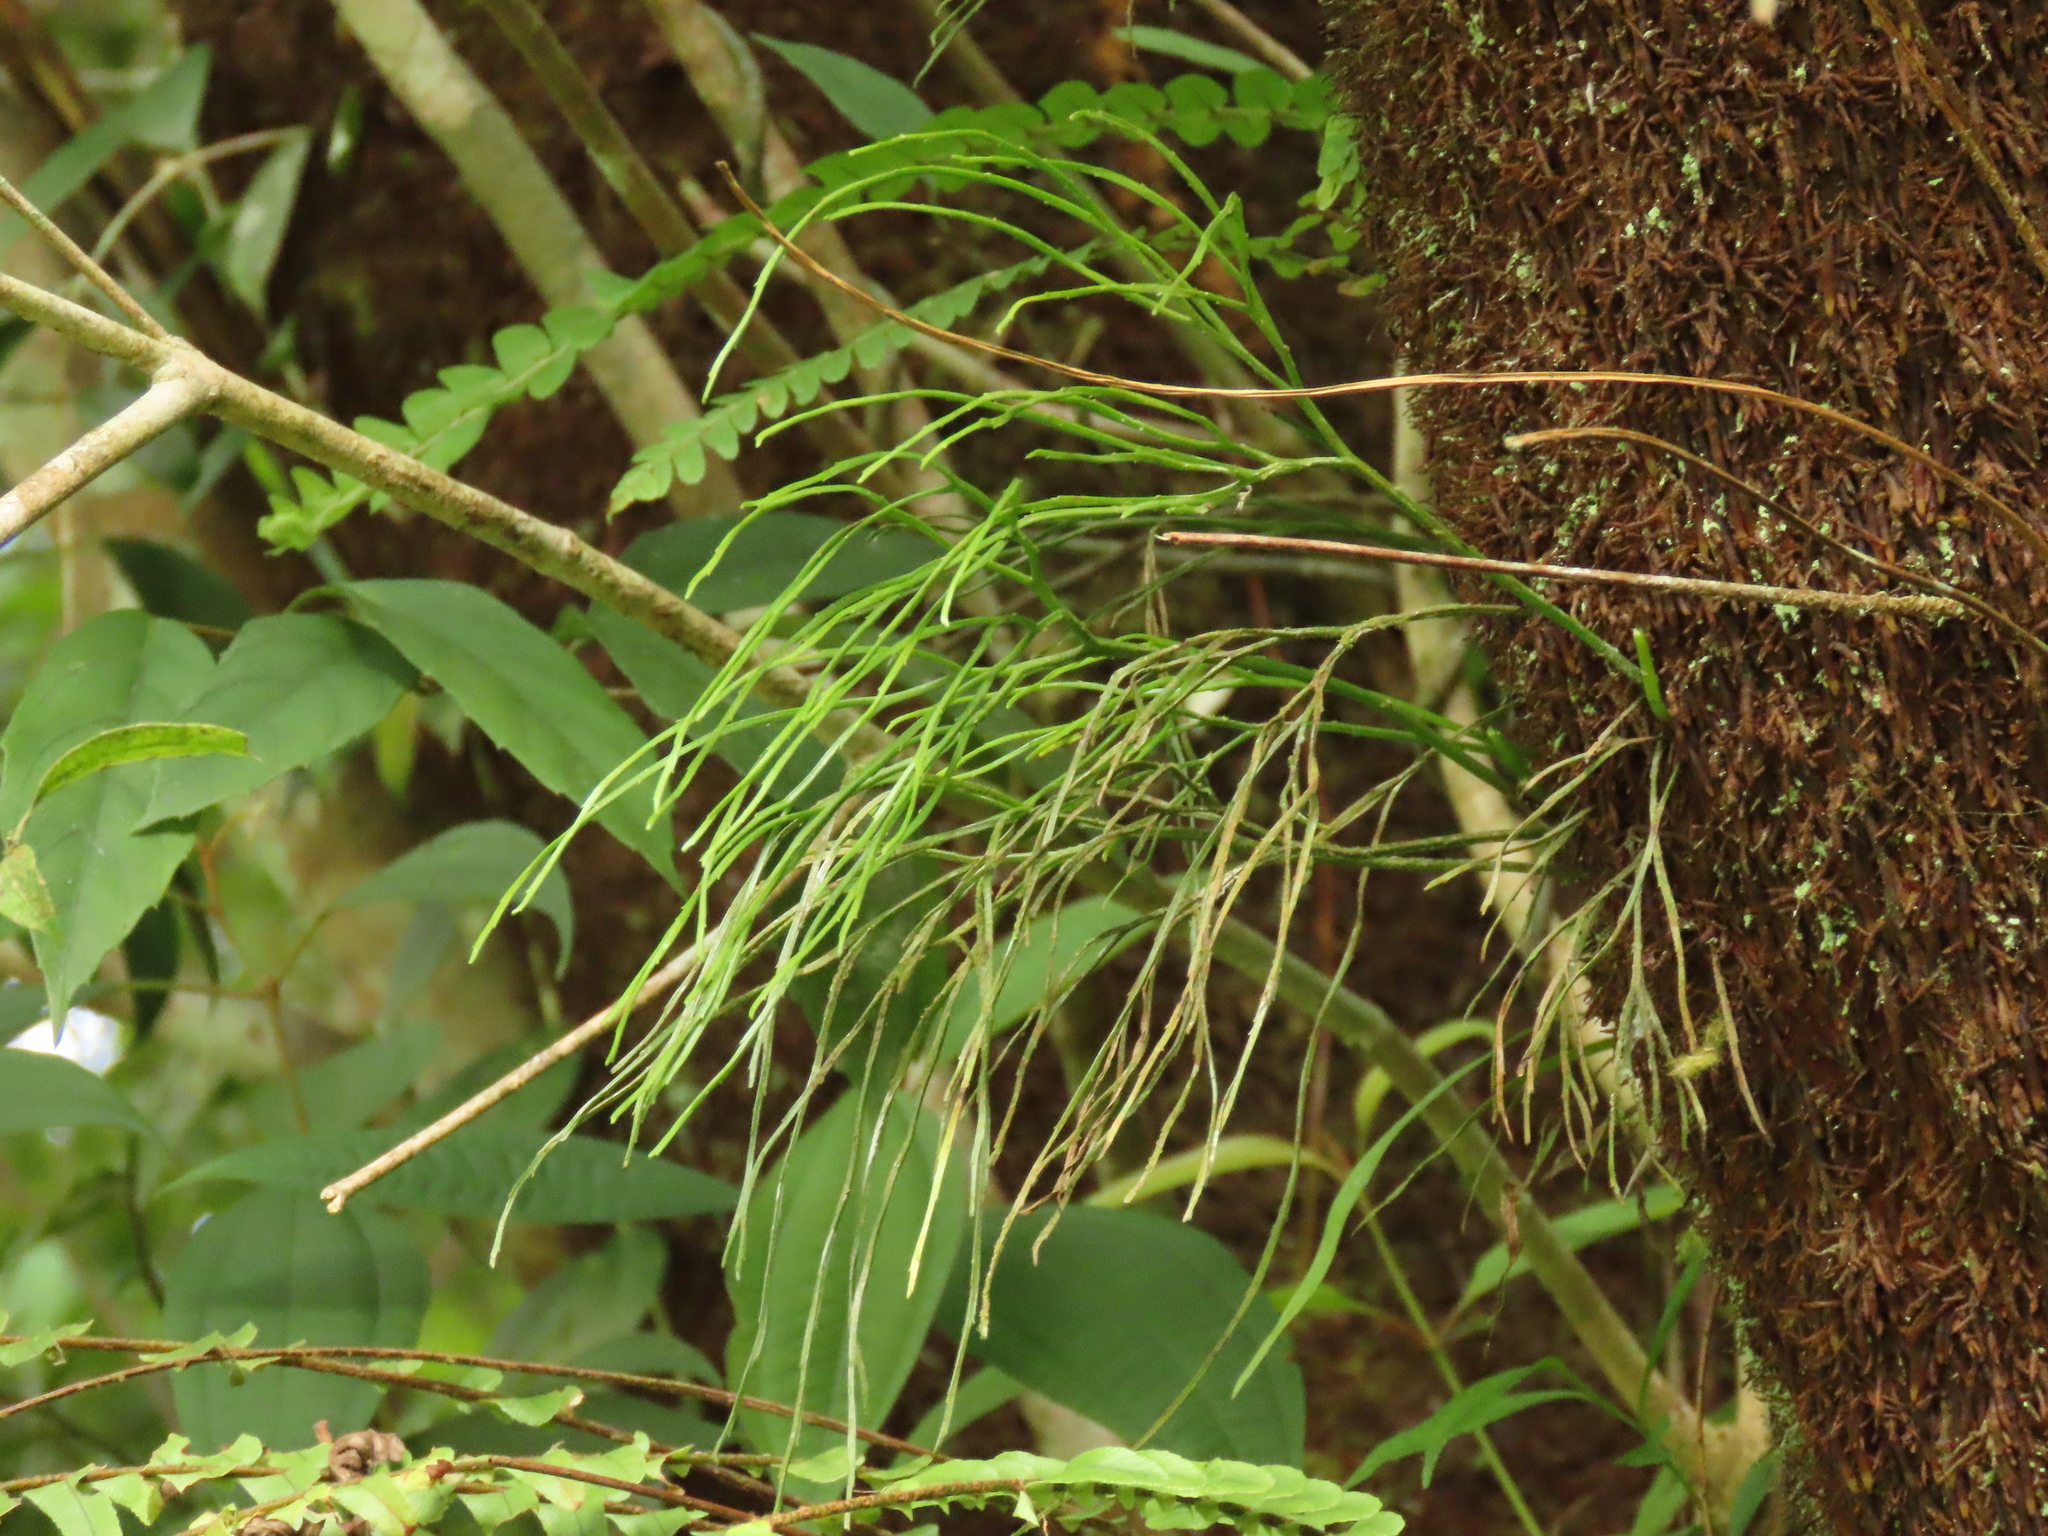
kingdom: Plantae
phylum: Tracheophyta
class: Polypodiopsida
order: Psilotales
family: Psilotaceae
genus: Psilotum
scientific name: Psilotum nudum
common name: Skeleton fork fern
